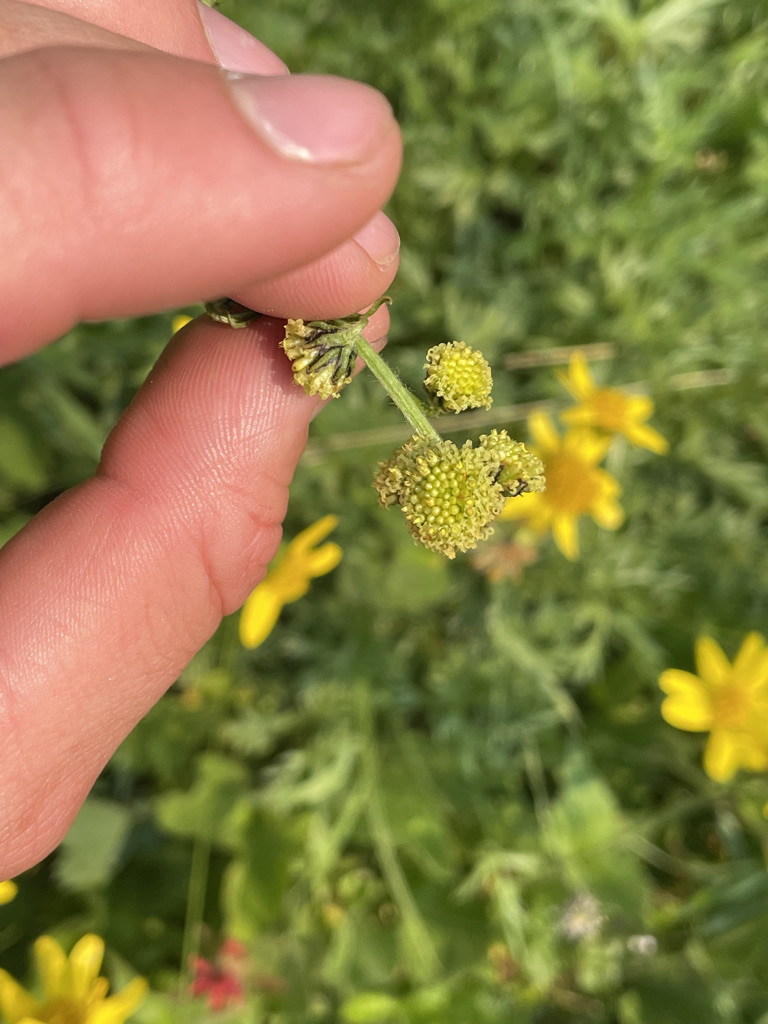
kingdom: Plantae
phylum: Tracheophyta
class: Magnoliopsida
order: Asterales
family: Asteraceae
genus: Artemisia
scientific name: Artemisia norvegica
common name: Norwegian mugwort
